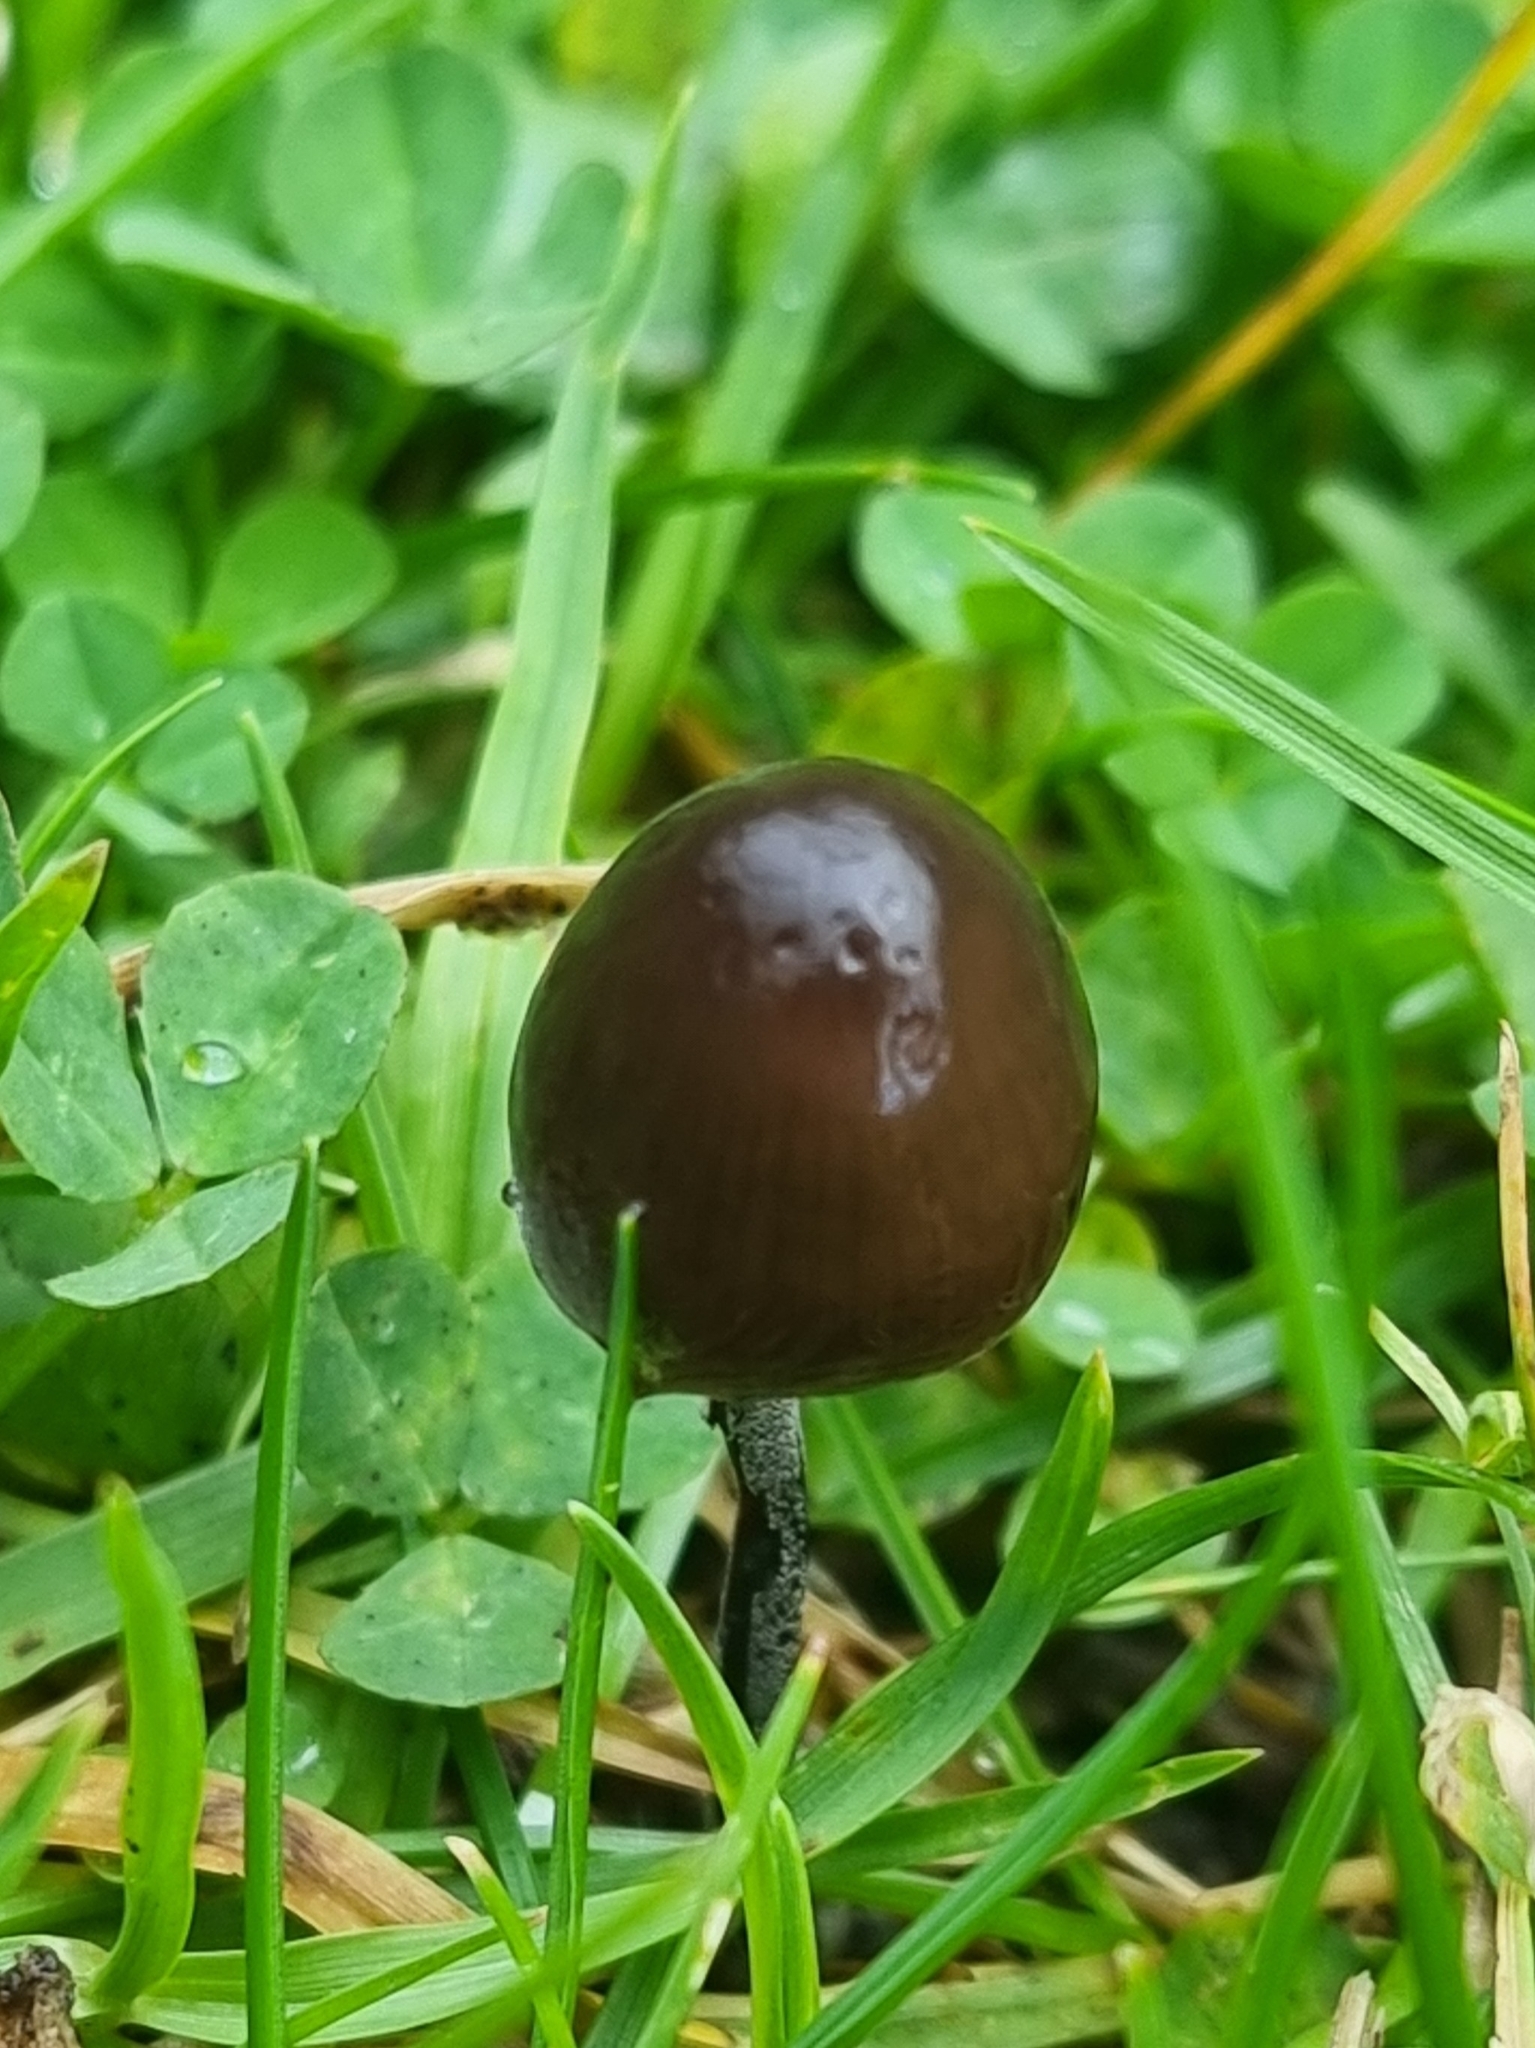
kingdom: Fungi
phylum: Basidiomycota
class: Agaricomycetes
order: Agaricales
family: Bolbitiaceae
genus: Panaeolus
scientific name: Panaeolus acuminatus
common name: Dewdrop mottlegill
